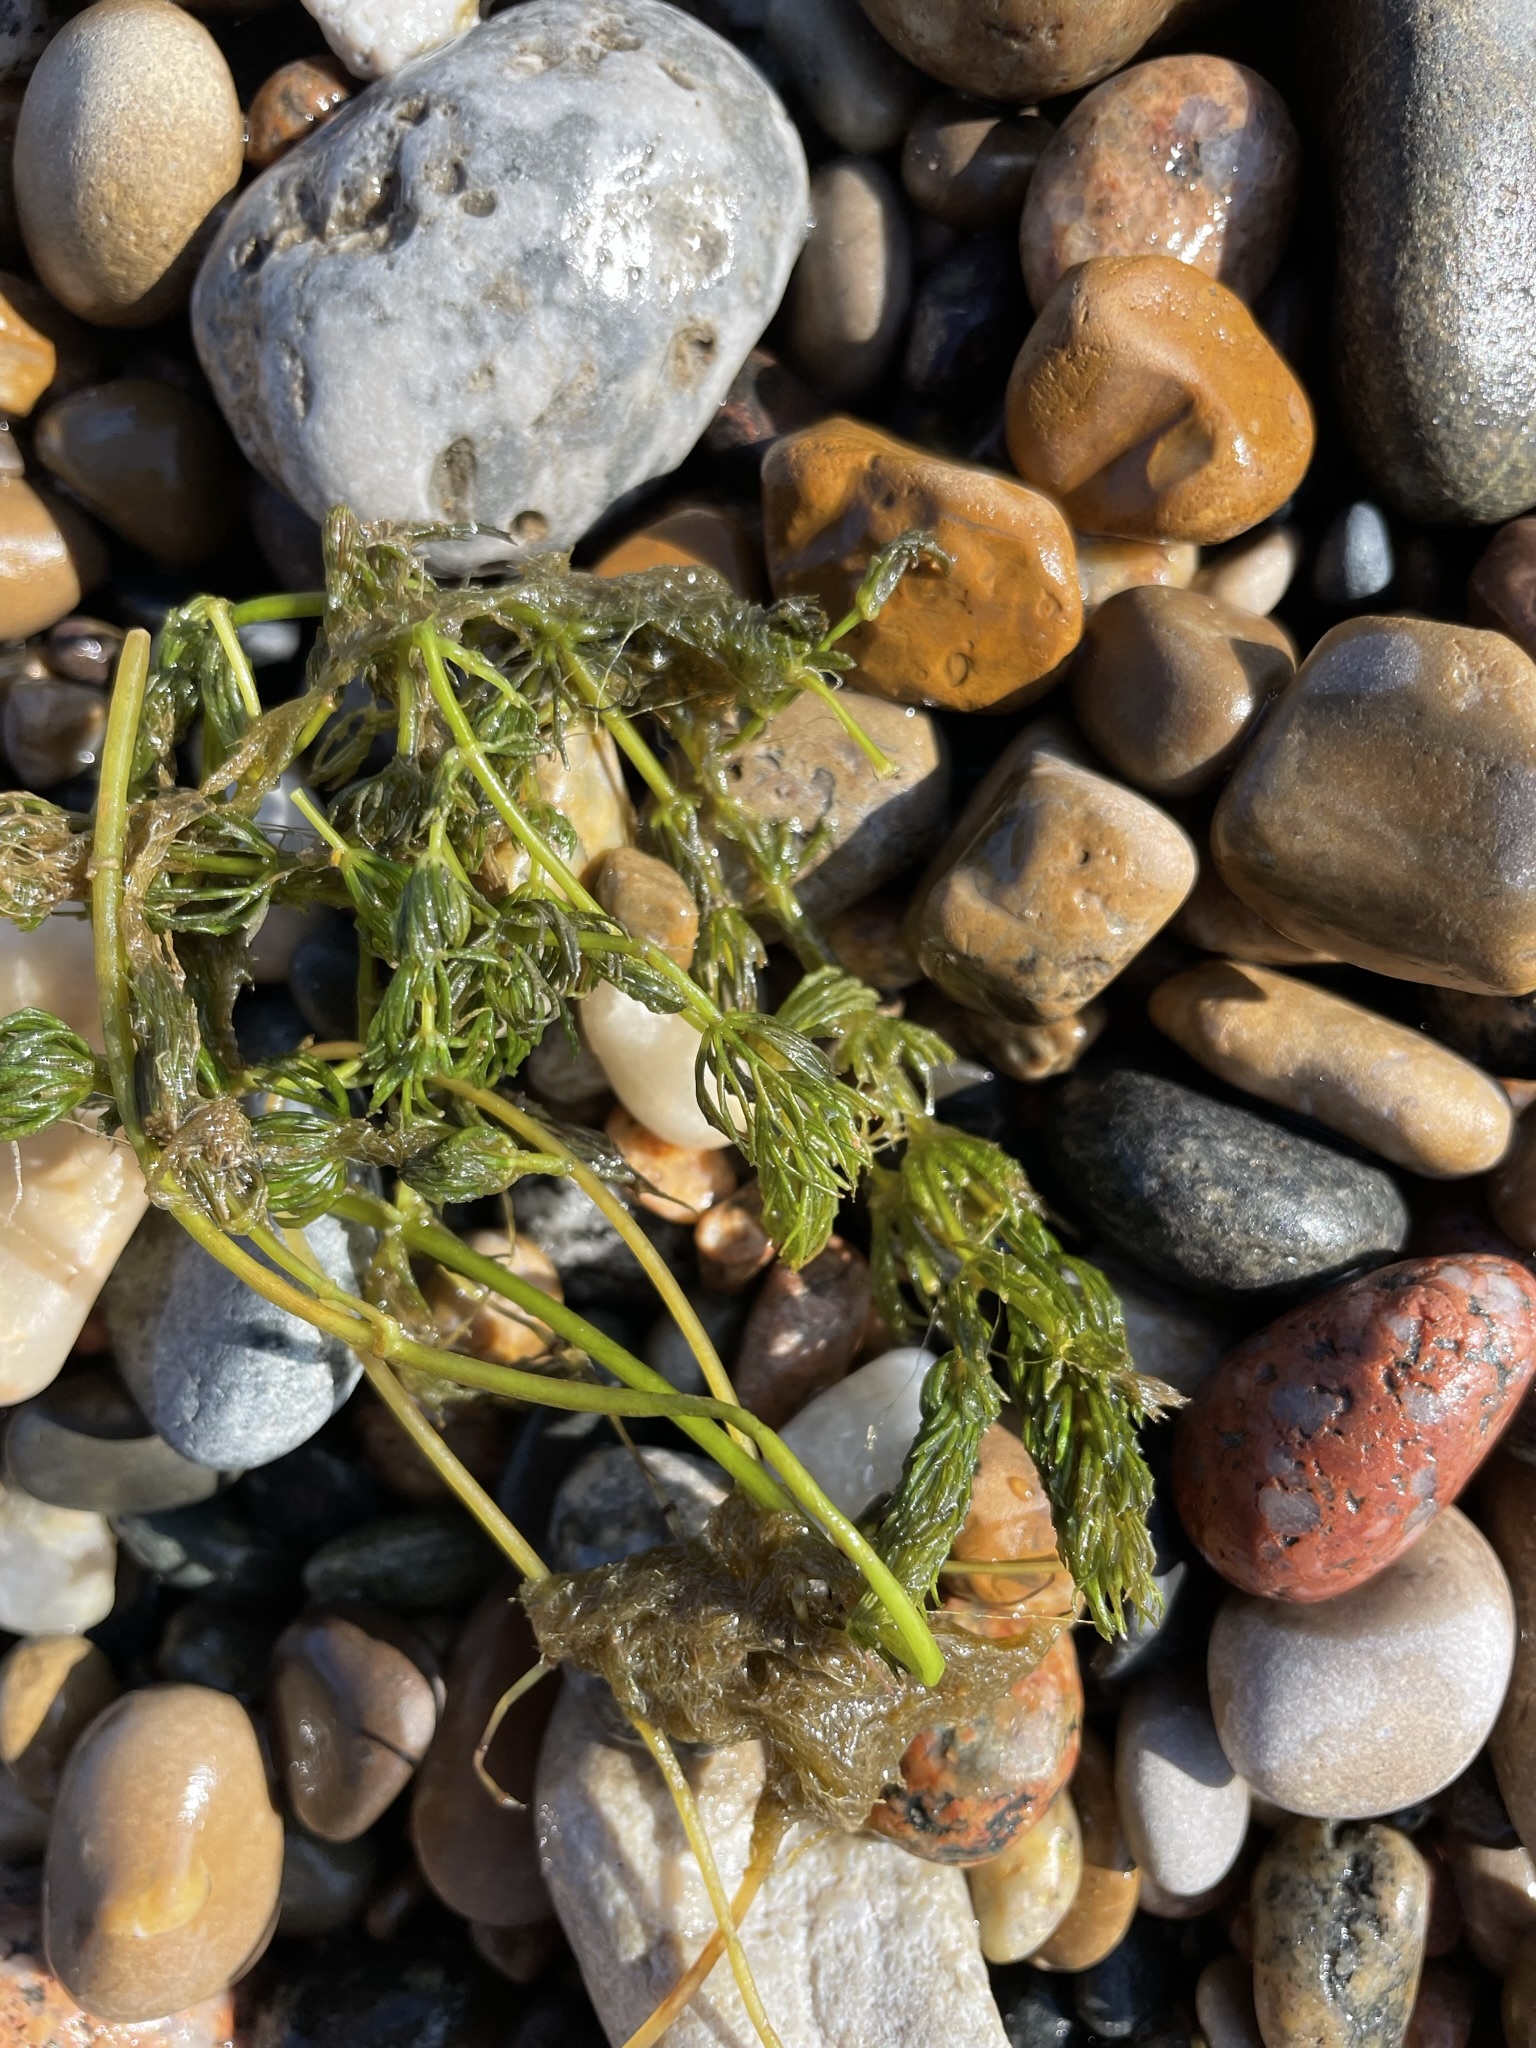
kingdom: Plantae
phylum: Tracheophyta
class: Magnoliopsida
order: Ceratophyllales
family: Ceratophyllaceae
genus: Ceratophyllum
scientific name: Ceratophyllum demersum
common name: Rigid hornwort
